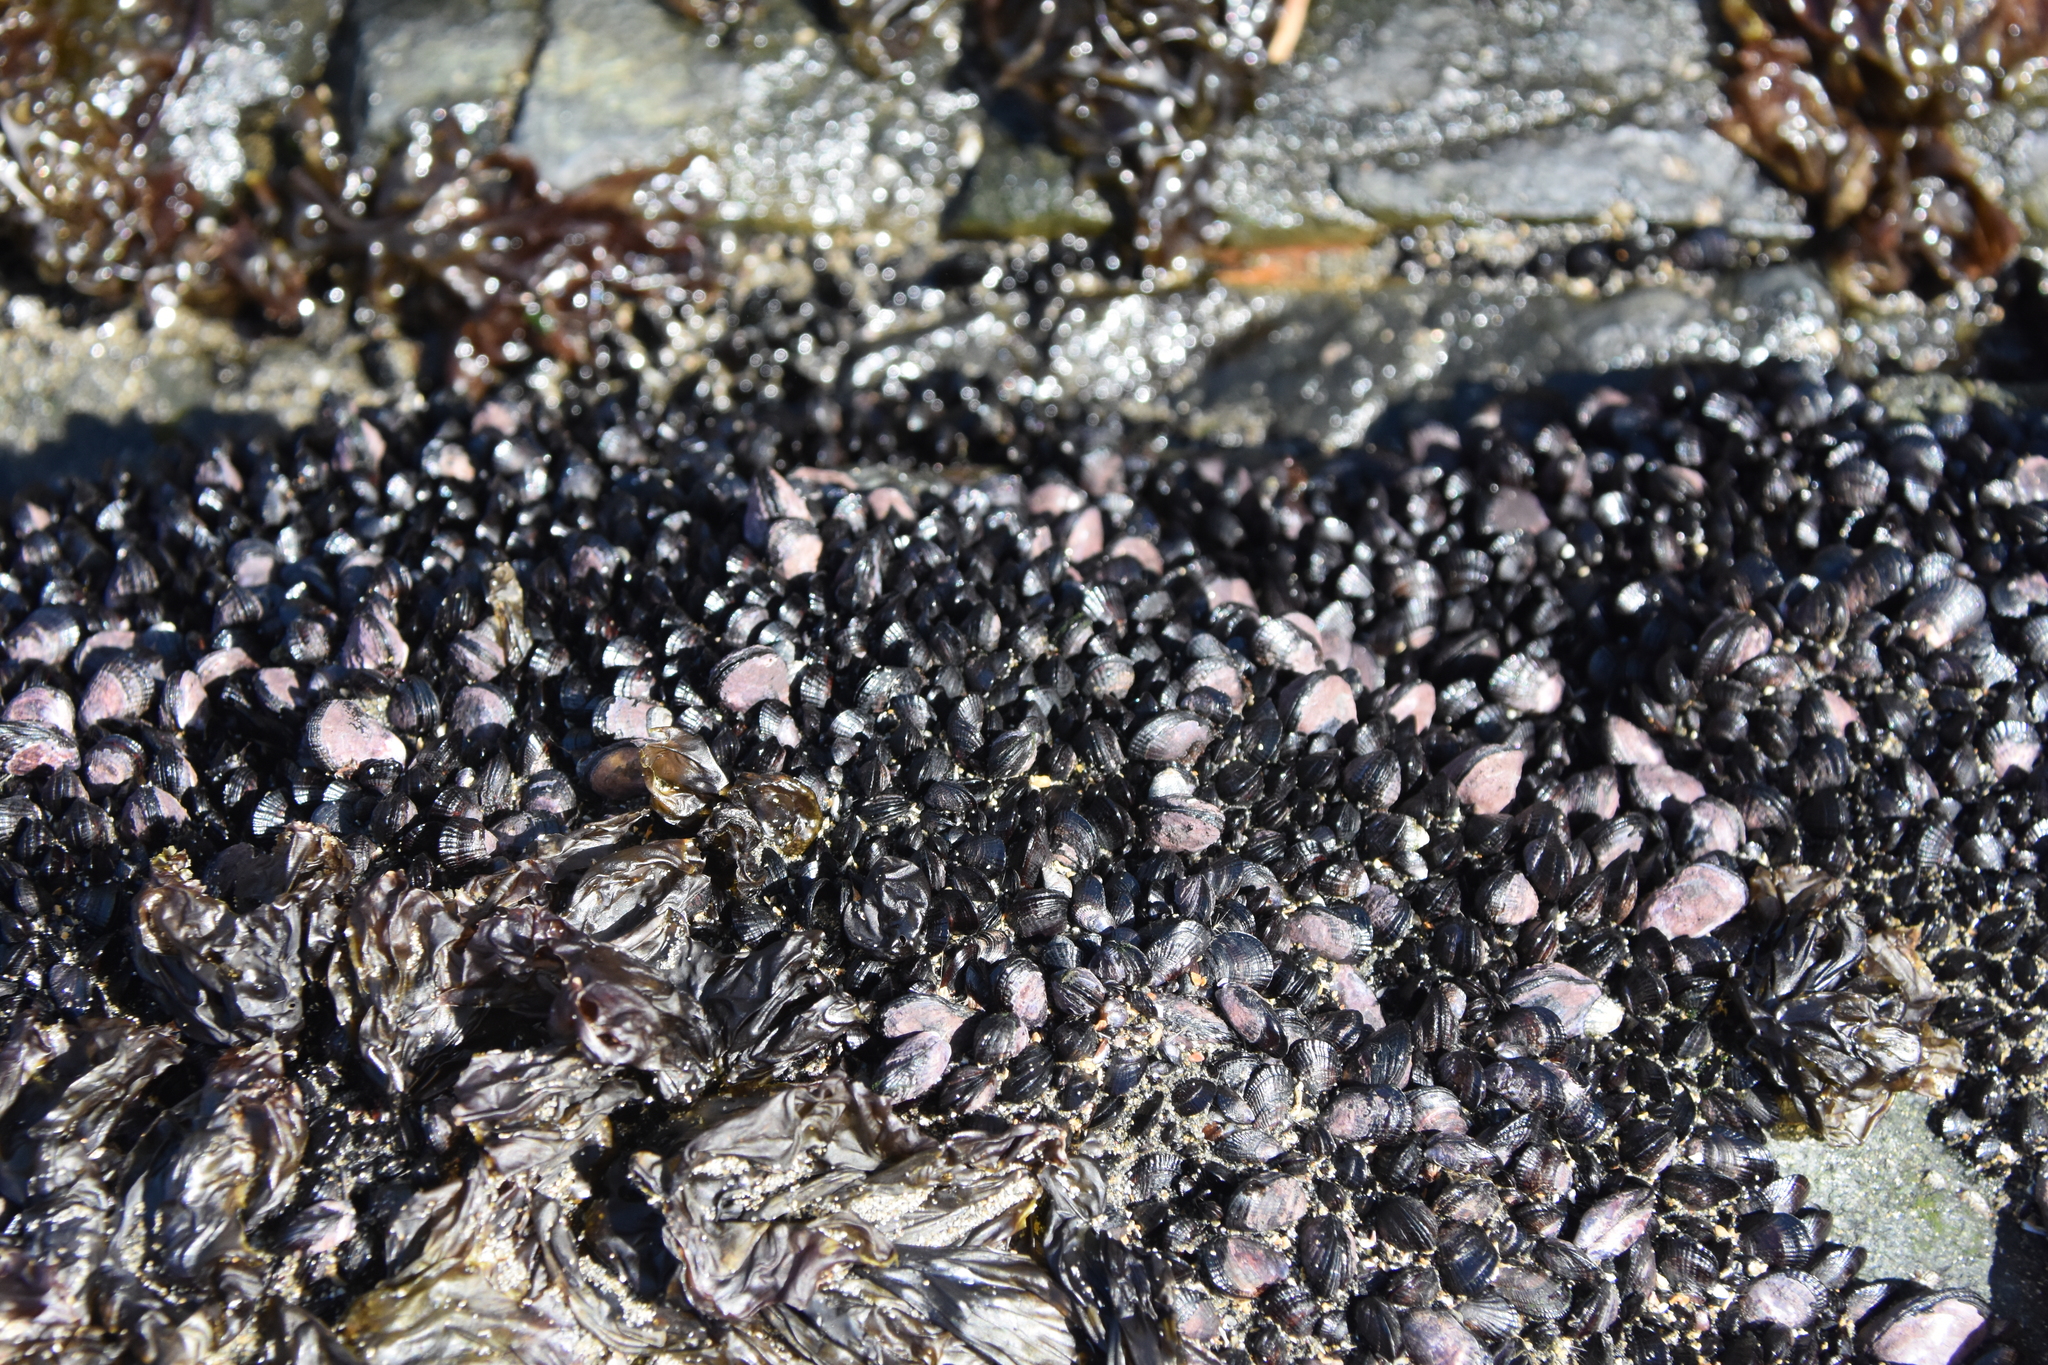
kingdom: Animalia
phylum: Mollusca
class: Bivalvia
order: Mytilida
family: Mytilidae
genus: Perumytilus
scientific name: Perumytilus purpuratus
